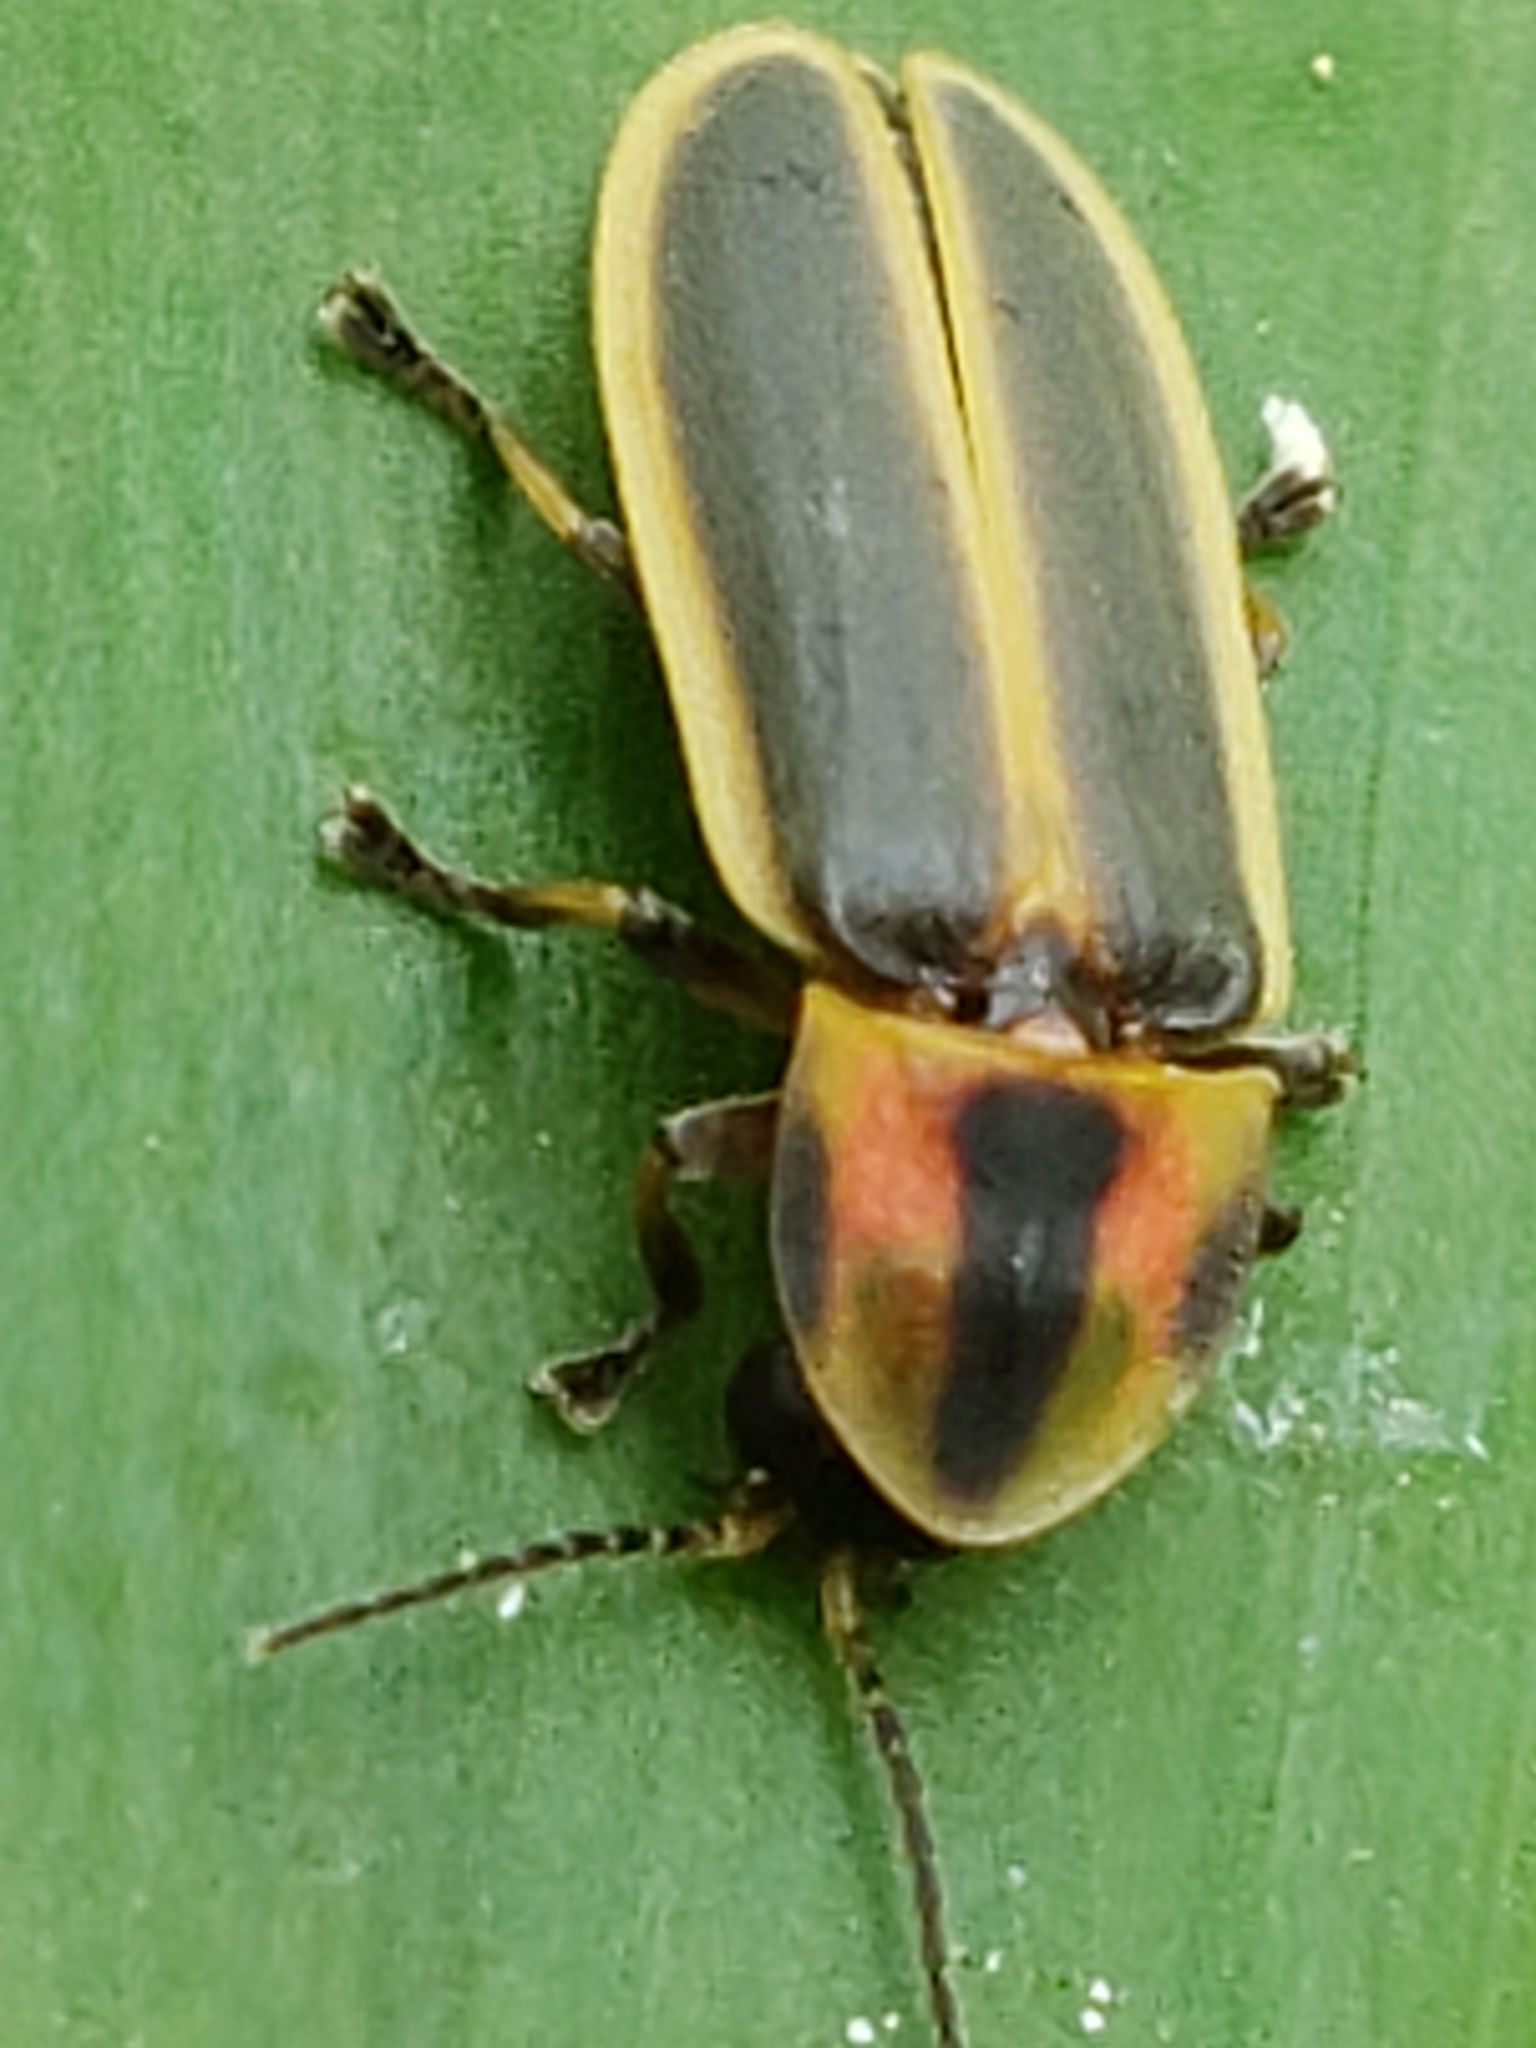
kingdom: Animalia
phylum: Arthropoda
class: Insecta
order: Coleoptera
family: Lampyridae
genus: Pyractomena
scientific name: Pyractomena angulata
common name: Candle firefly
